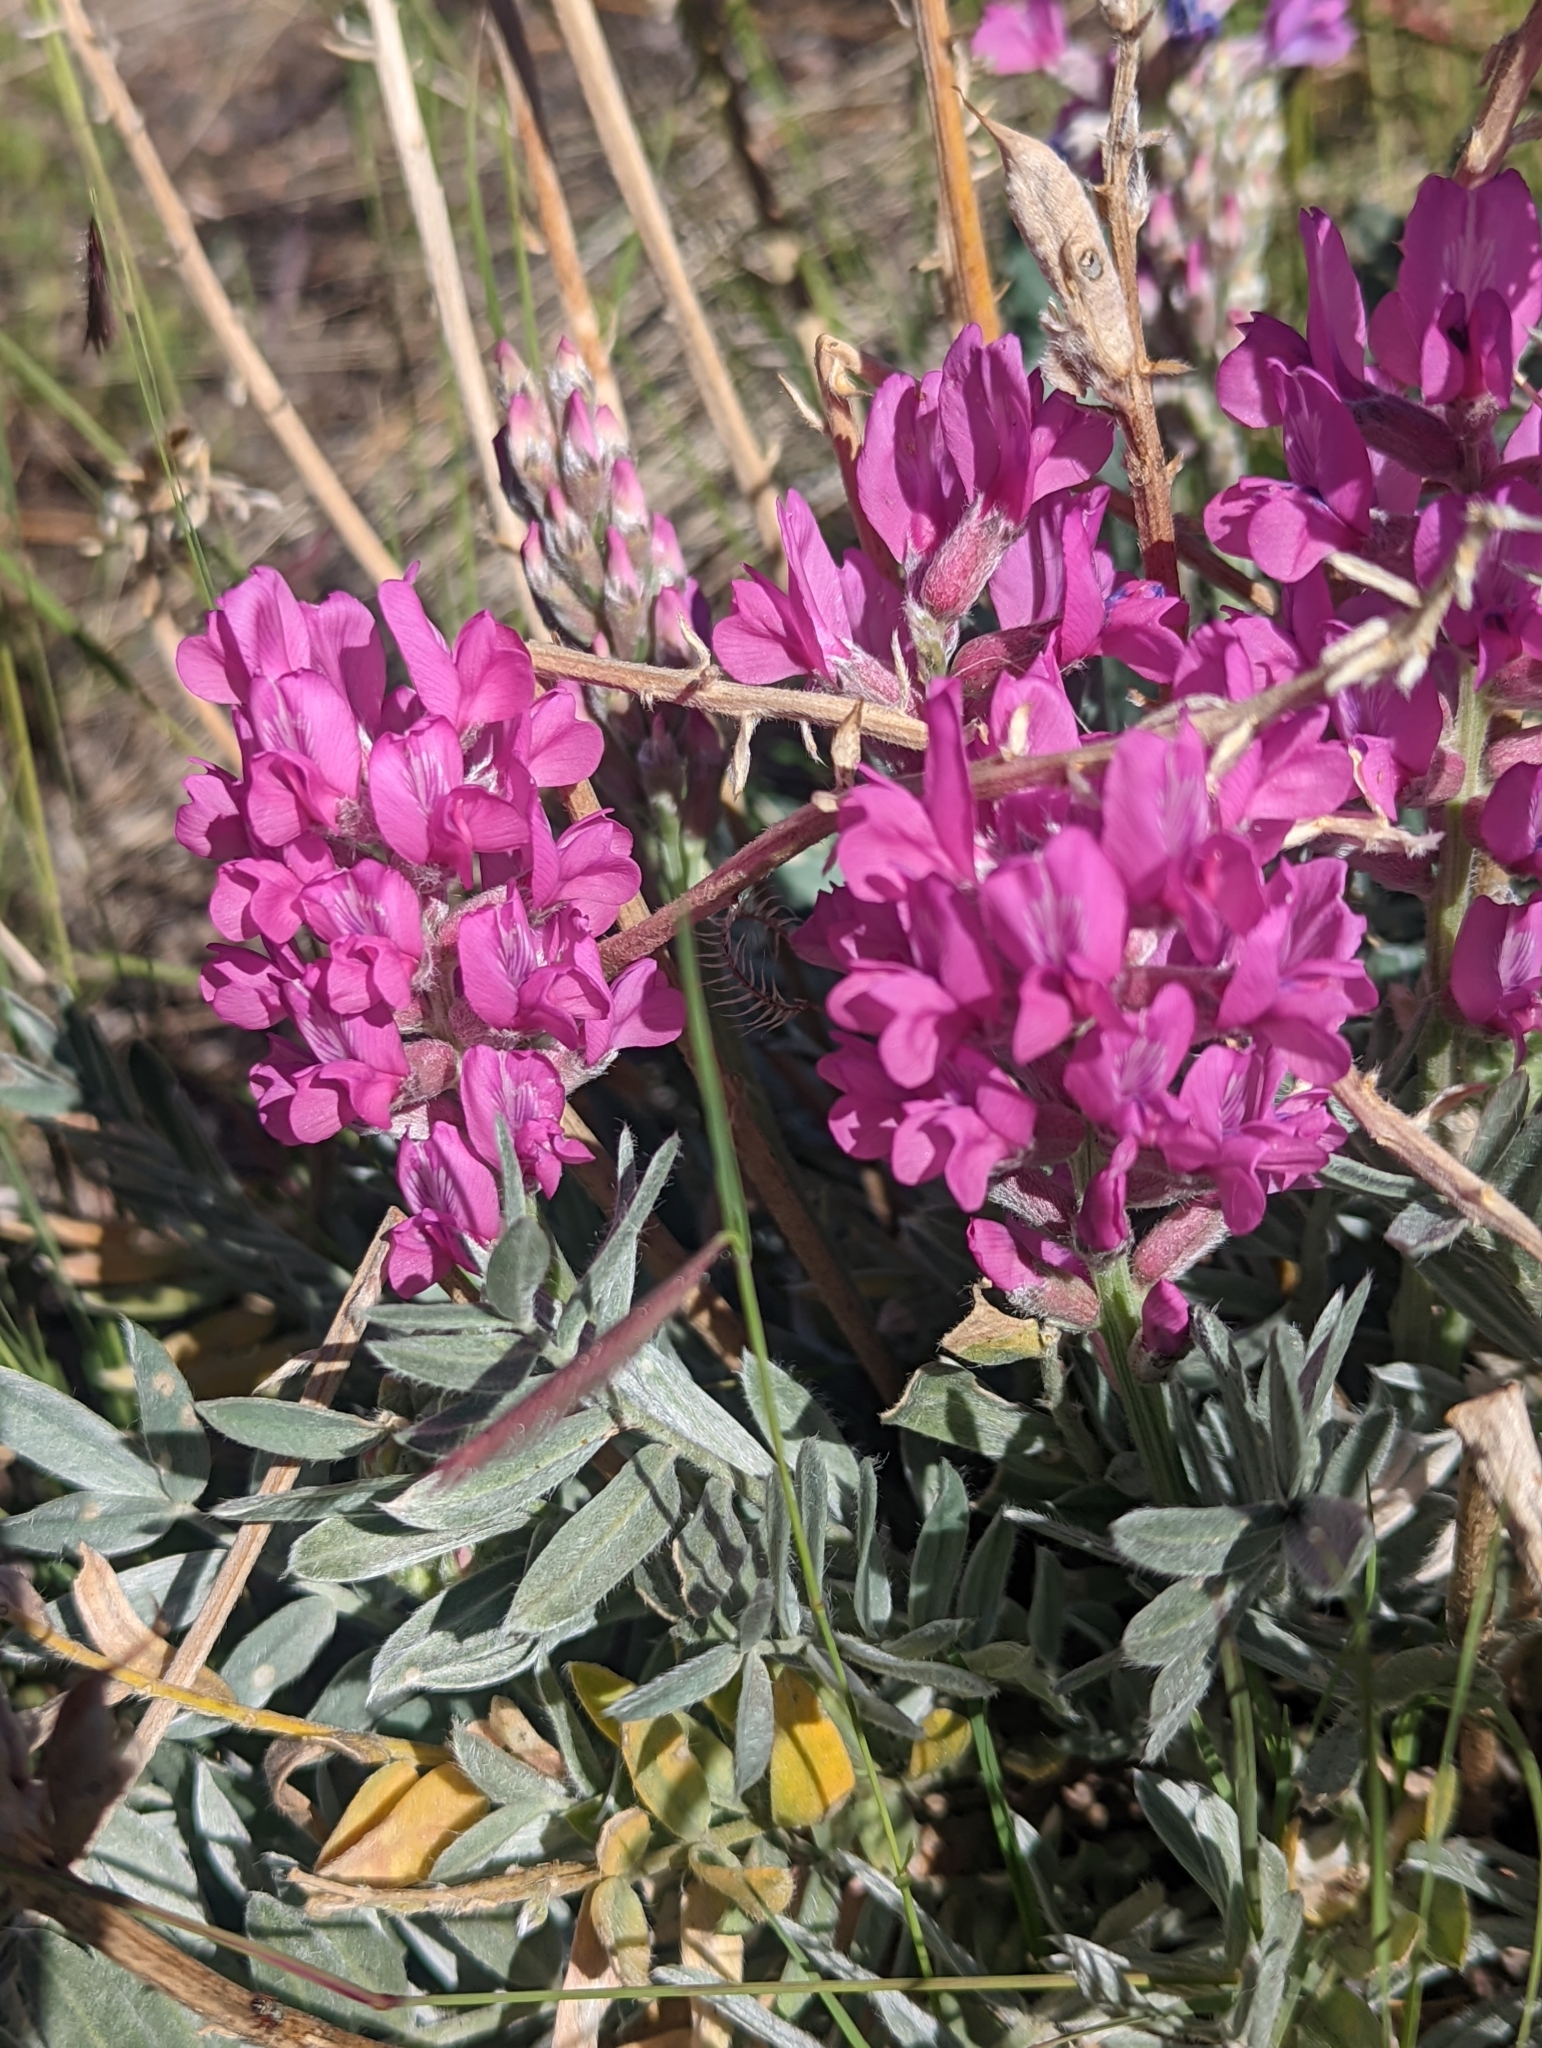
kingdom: Plantae
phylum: Tracheophyta
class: Magnoliopsida
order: Fabales
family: Fabaceae
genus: Oxytropis
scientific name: Oxytropis lambertii
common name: Purple locoweed
